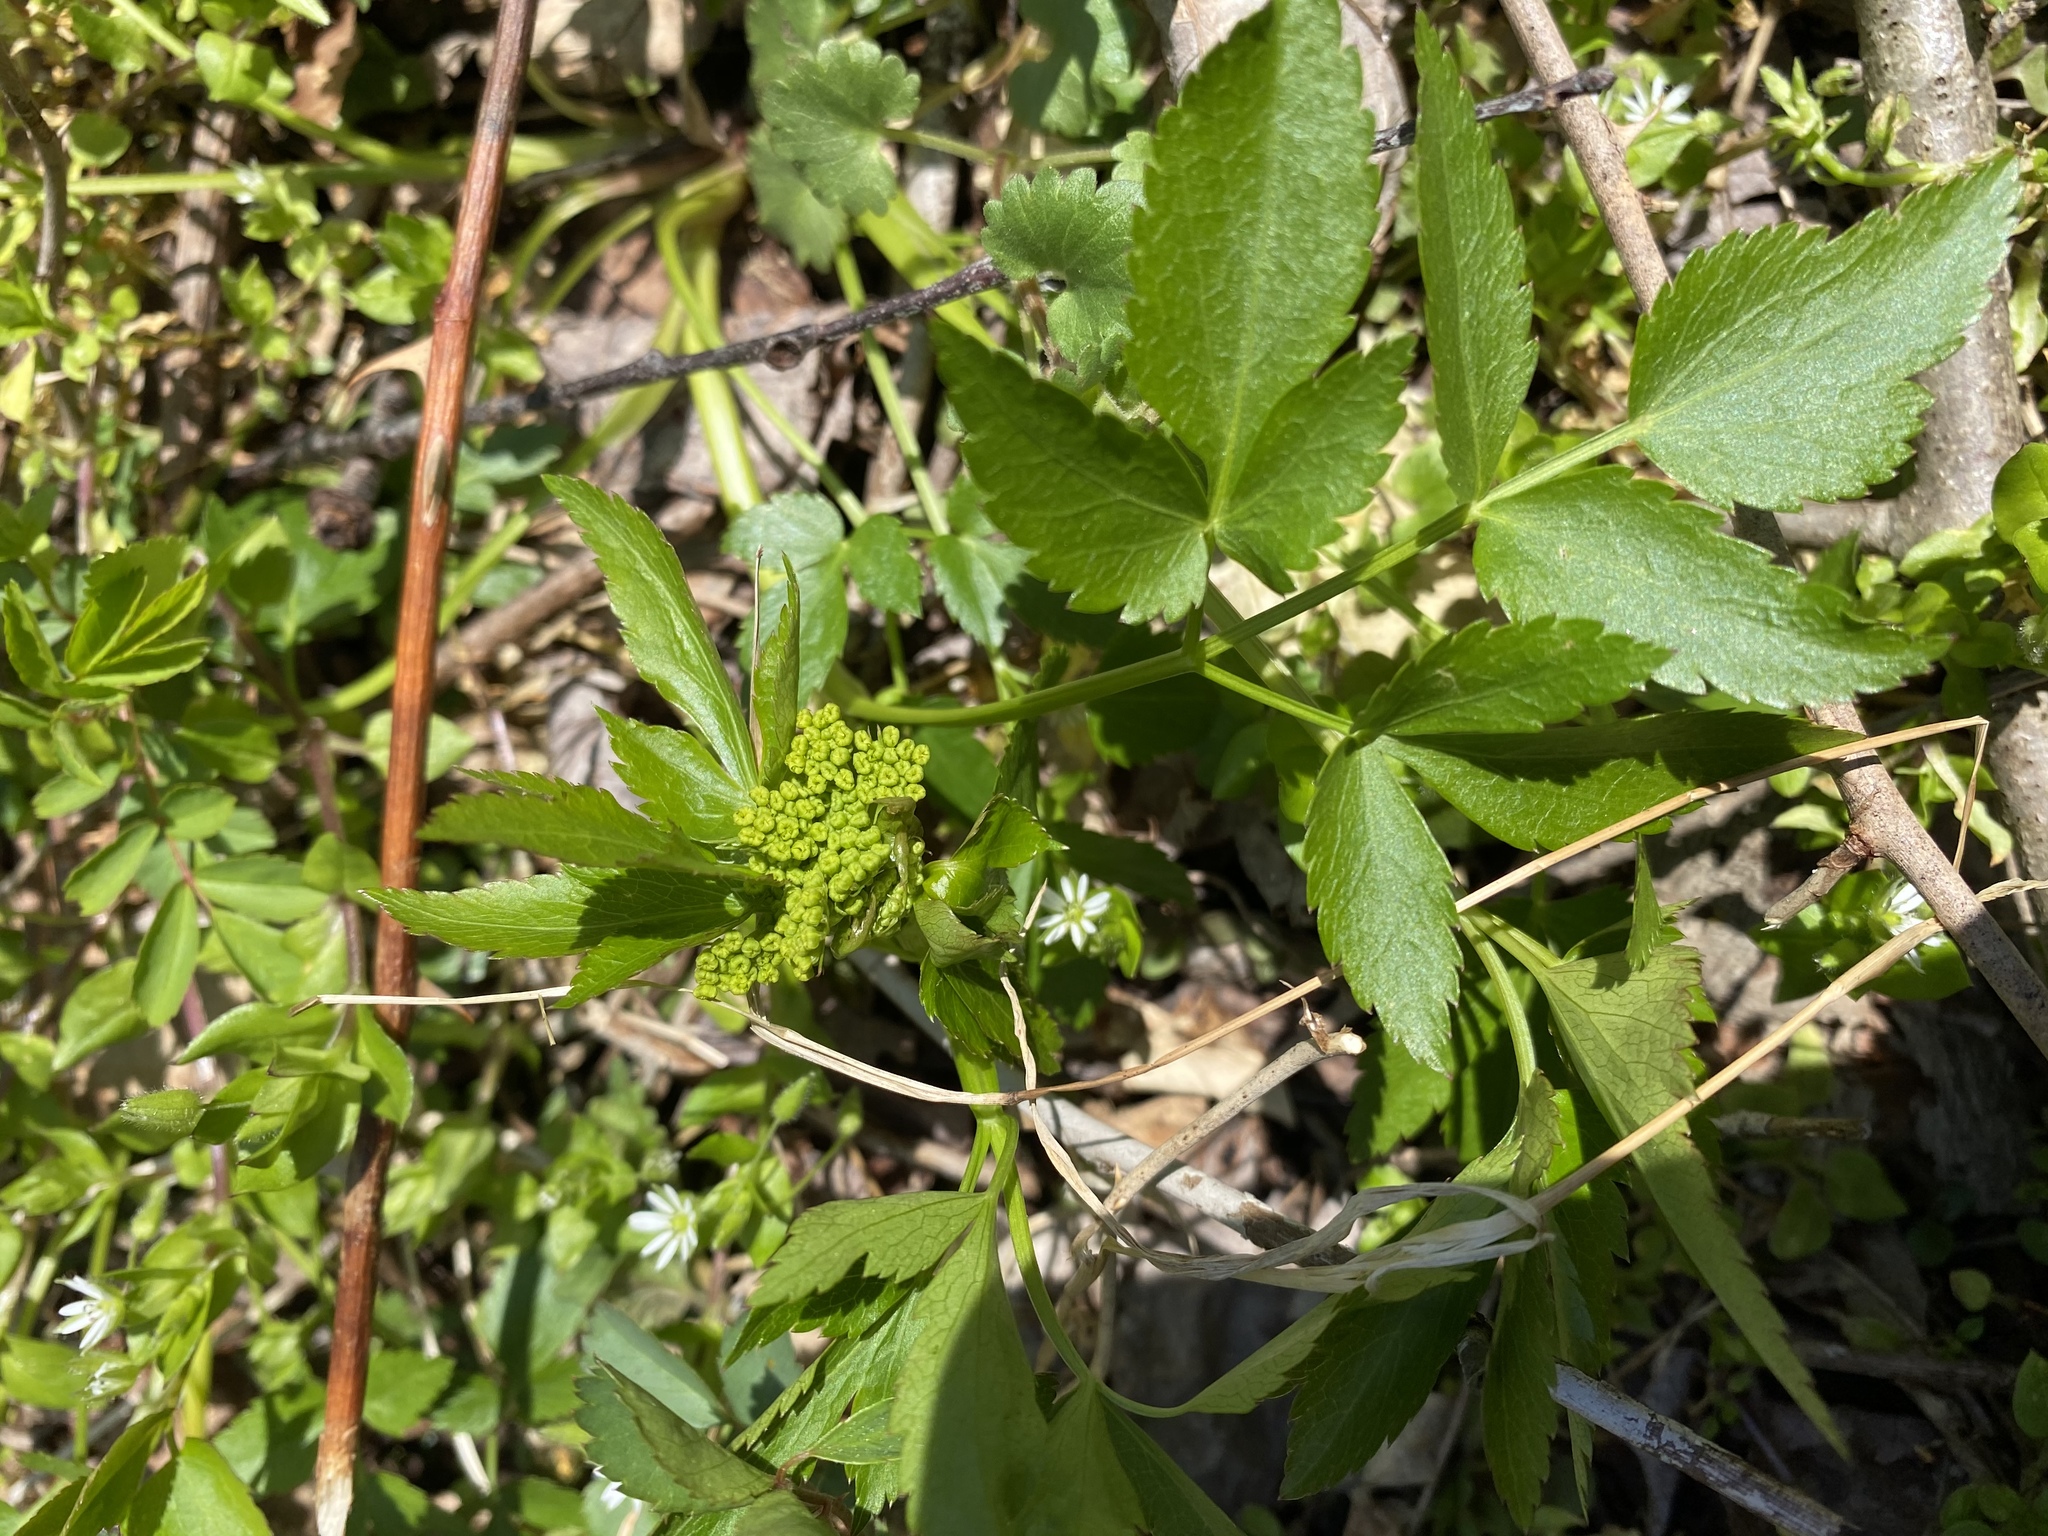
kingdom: Plantae
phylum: Tracheophyta
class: Magnoliopsida
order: Apiales
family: Apiaceae
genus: Zizia
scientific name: Zizia aurea
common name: Golden alexanders
